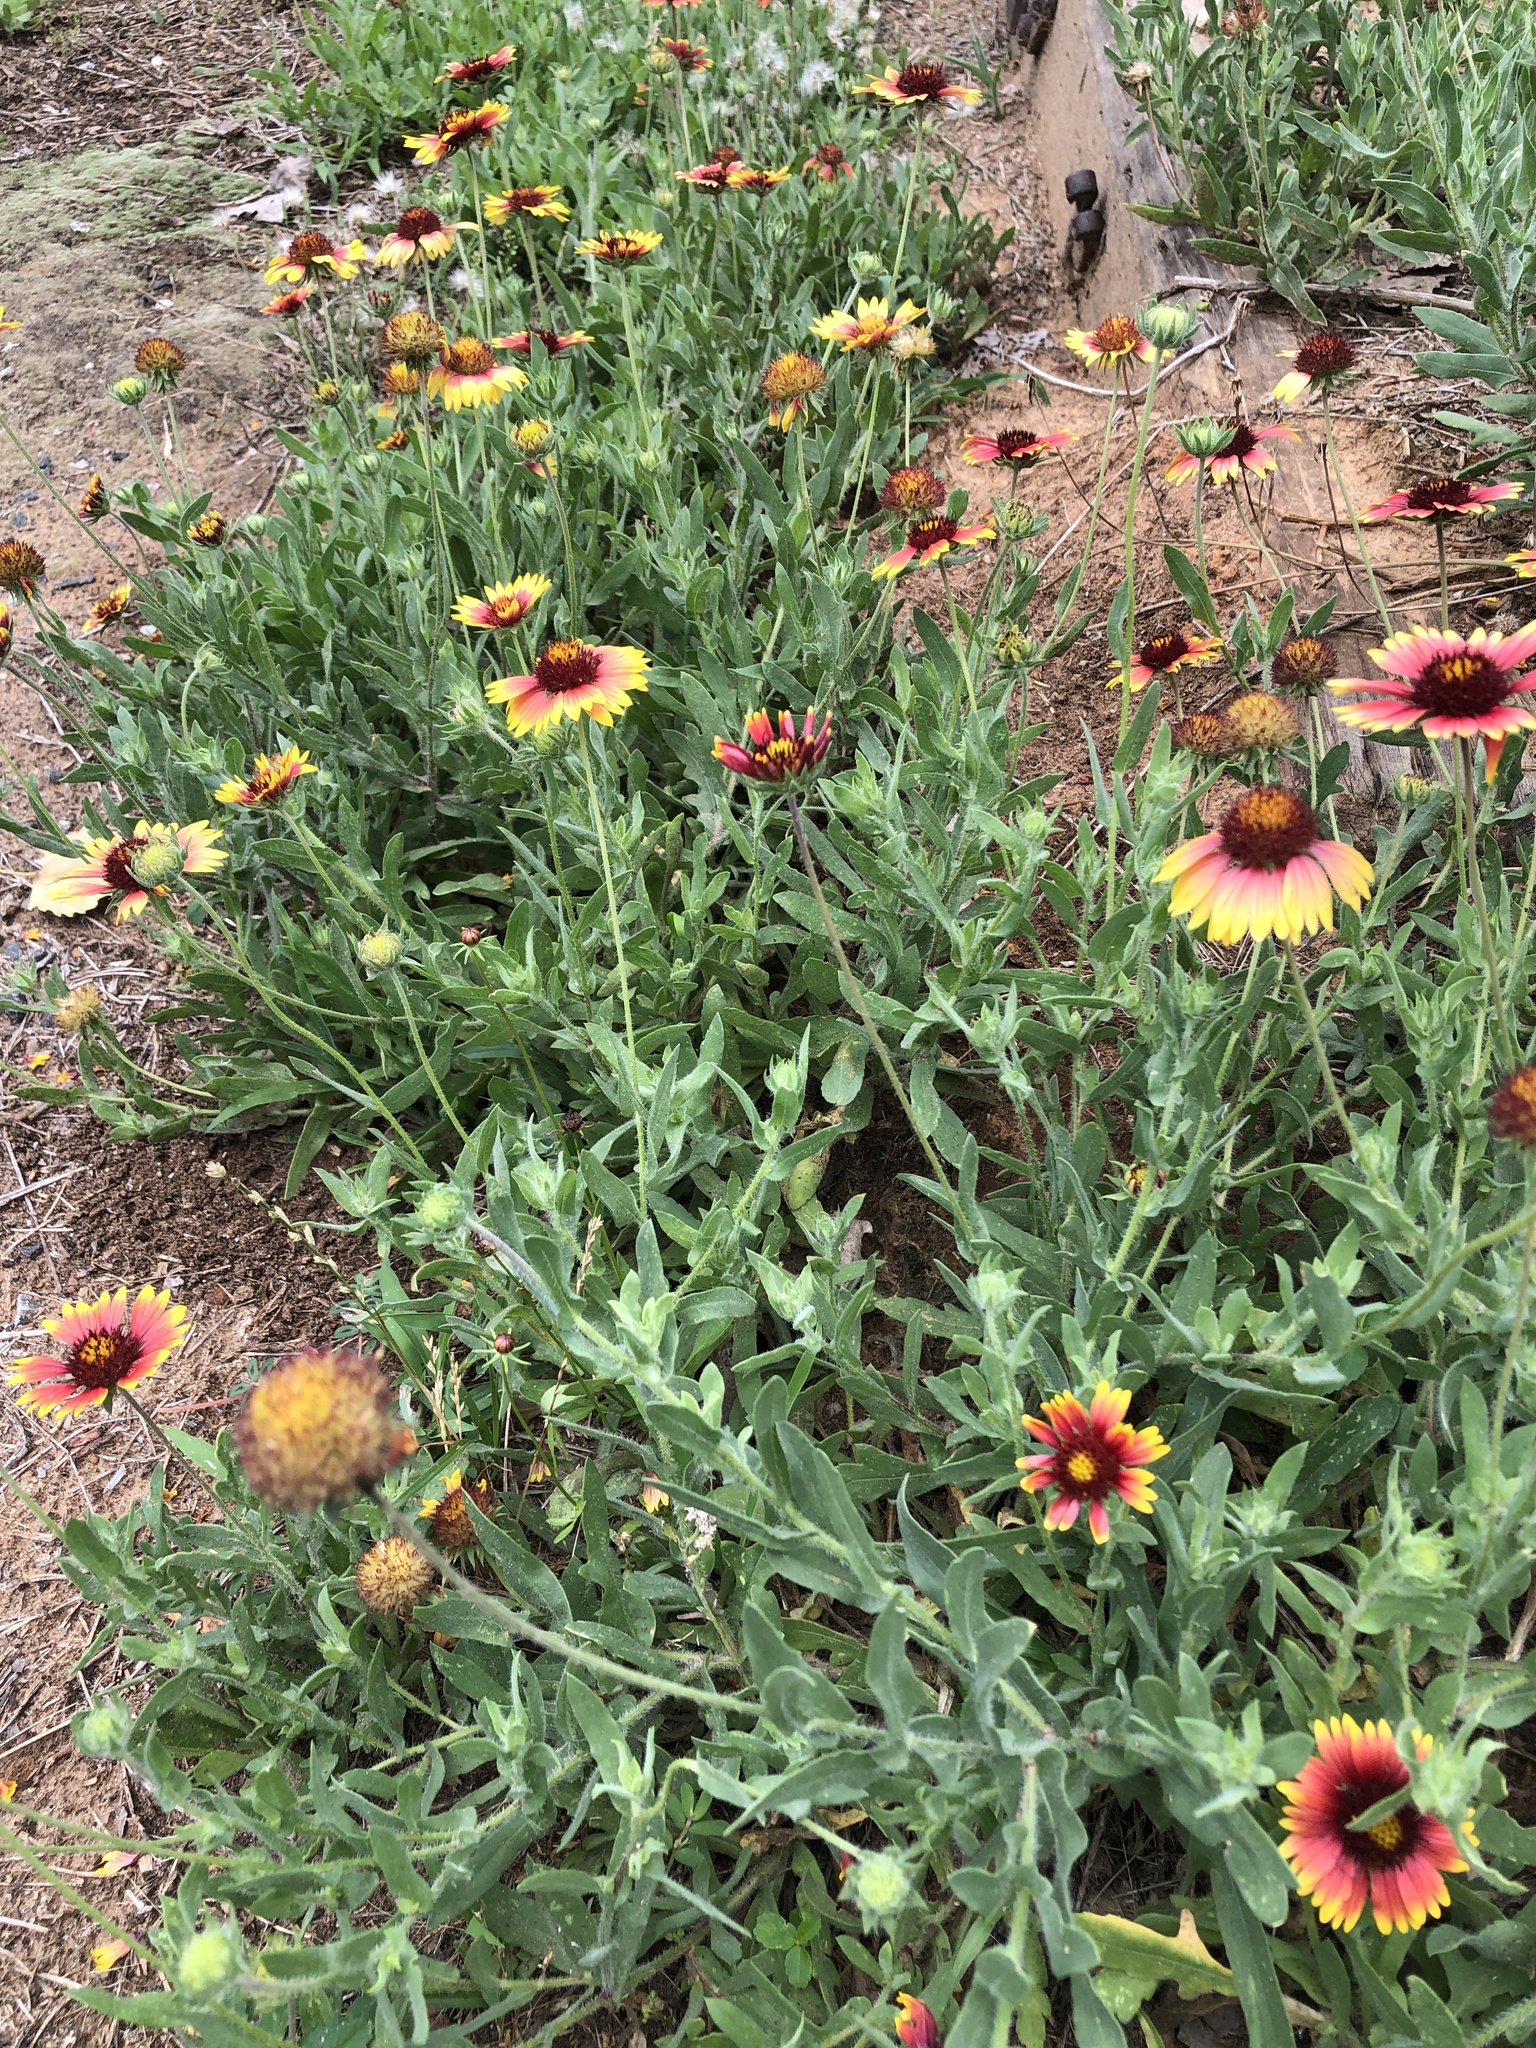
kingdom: Plantae
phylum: Tracheophyta
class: Magnoliopsida
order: Asterales
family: Asteraceae
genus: Gaillardia
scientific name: Gaillardia pulchella
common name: Firewheel
